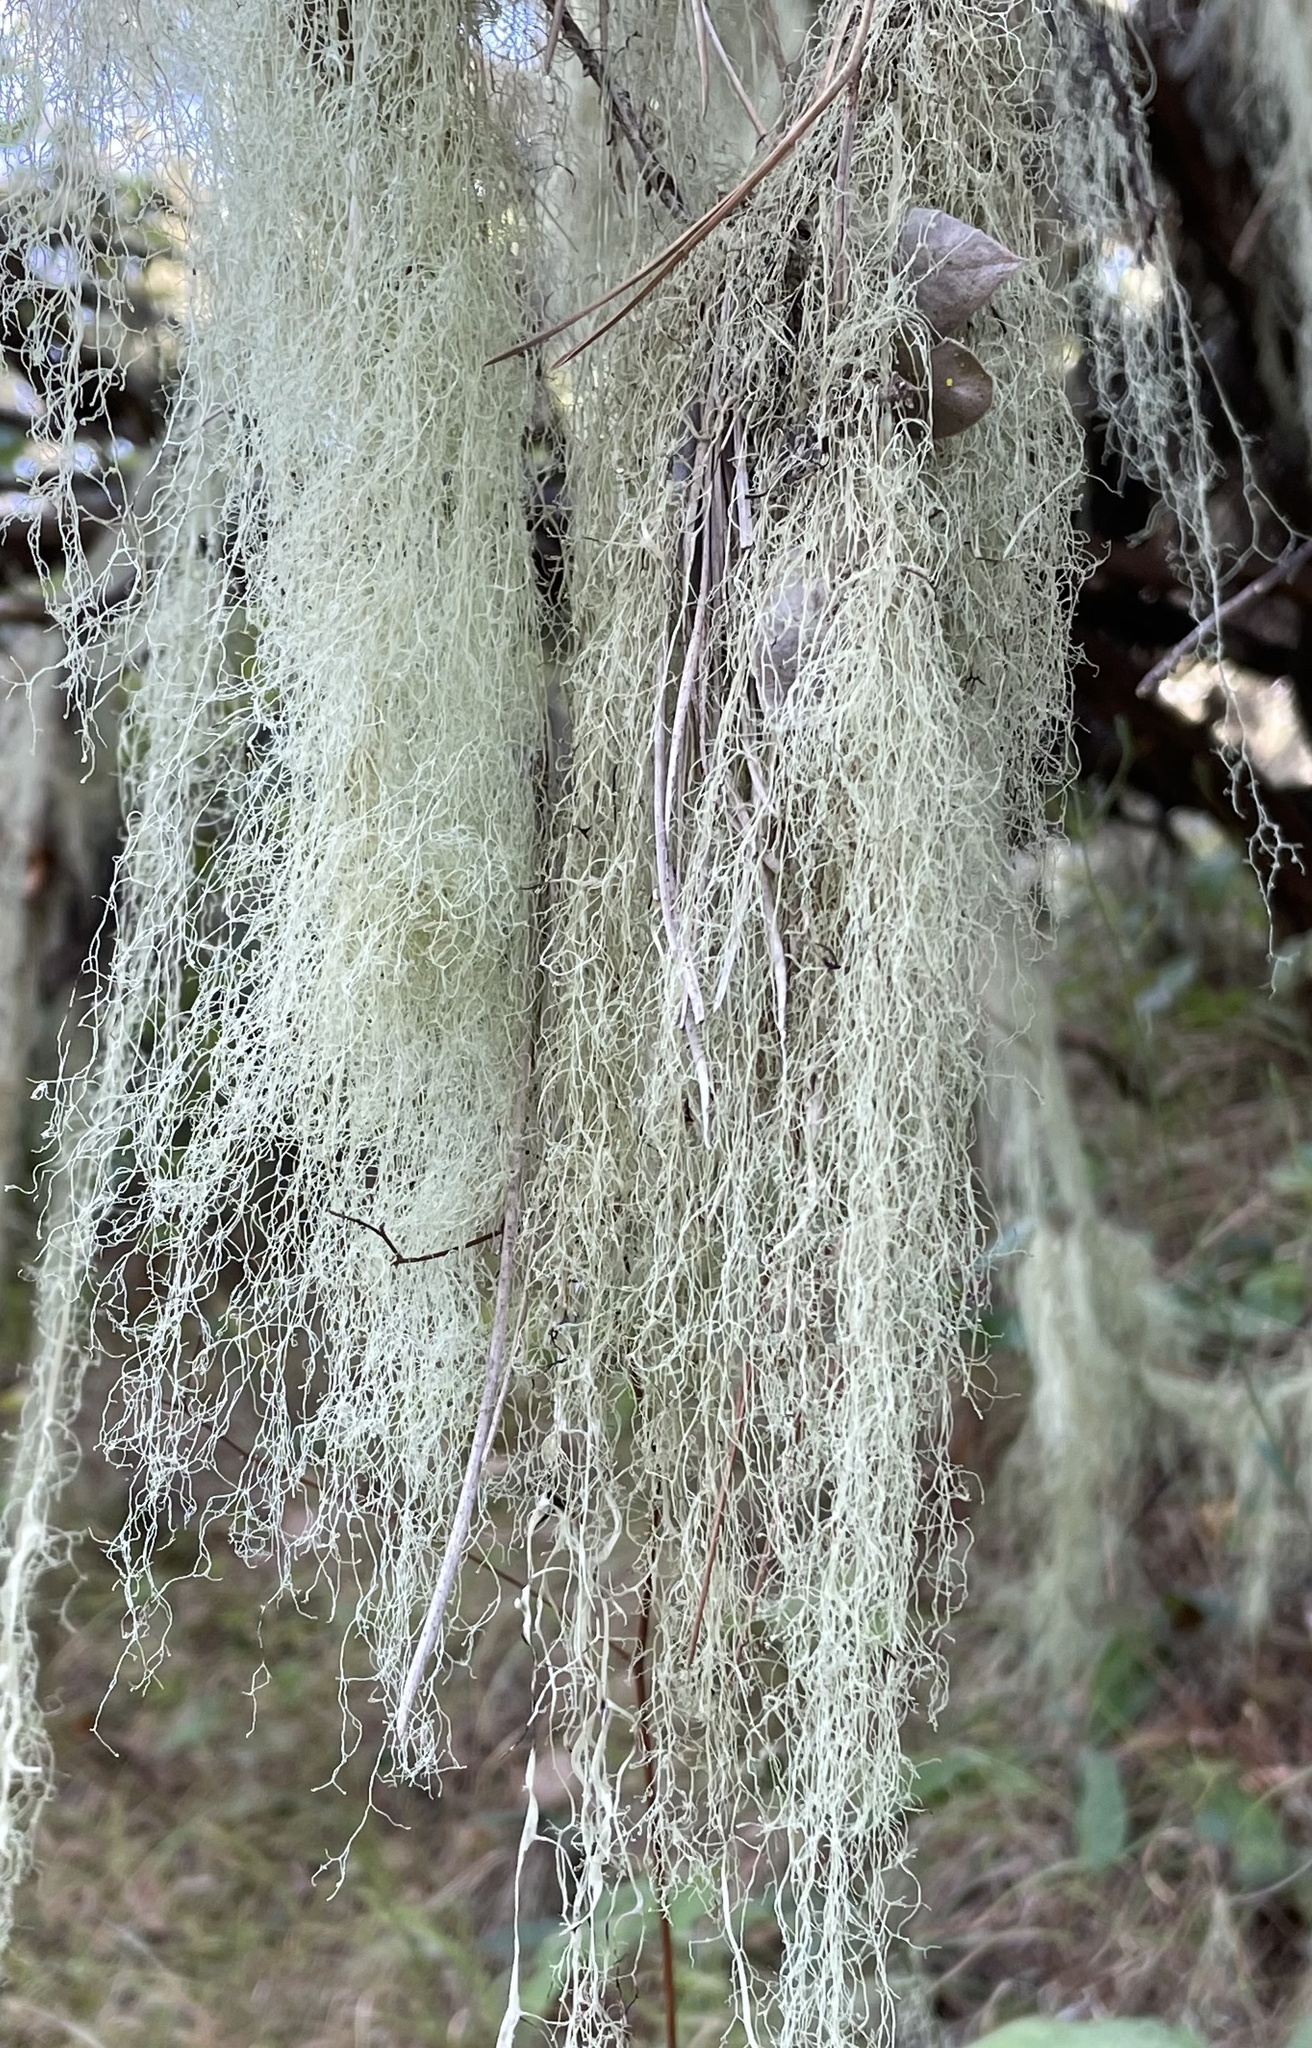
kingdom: Fungi
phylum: Ascomycota
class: Lecanoromycetes
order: Lecanorales
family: Ramalinaceae
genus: Ramalina
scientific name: Ramalina menziesii
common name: Lace lichen
